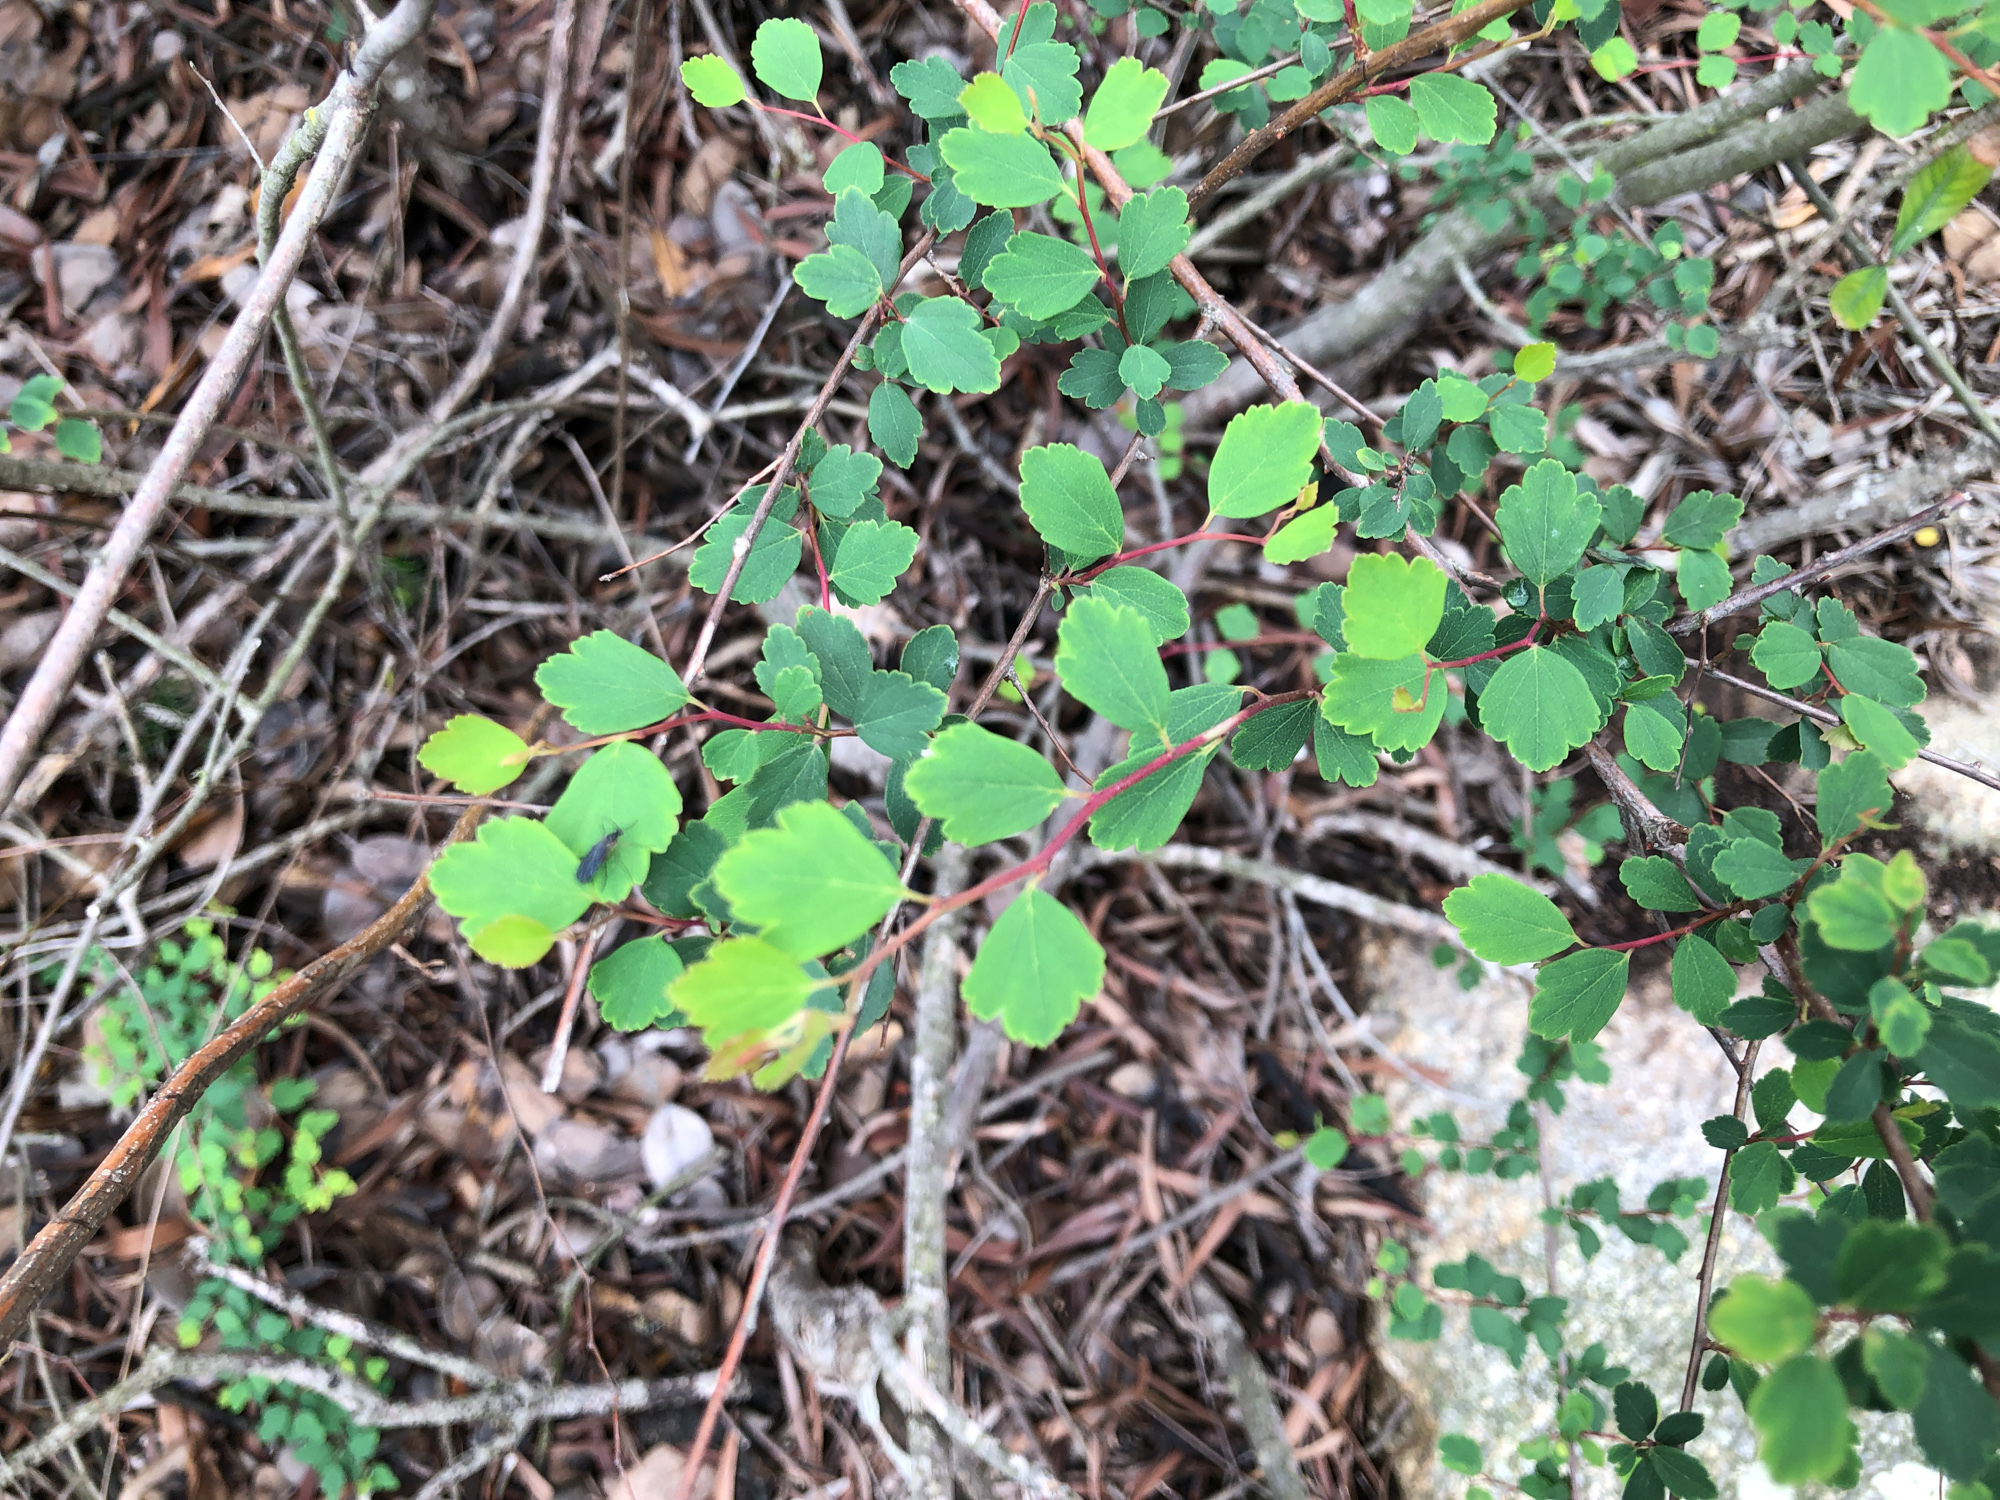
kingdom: Plantae
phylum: Tracheophyta
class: Magnoliopsida
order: Rosales
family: Rosaceae
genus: Spiraea
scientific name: Spiraea blumei
